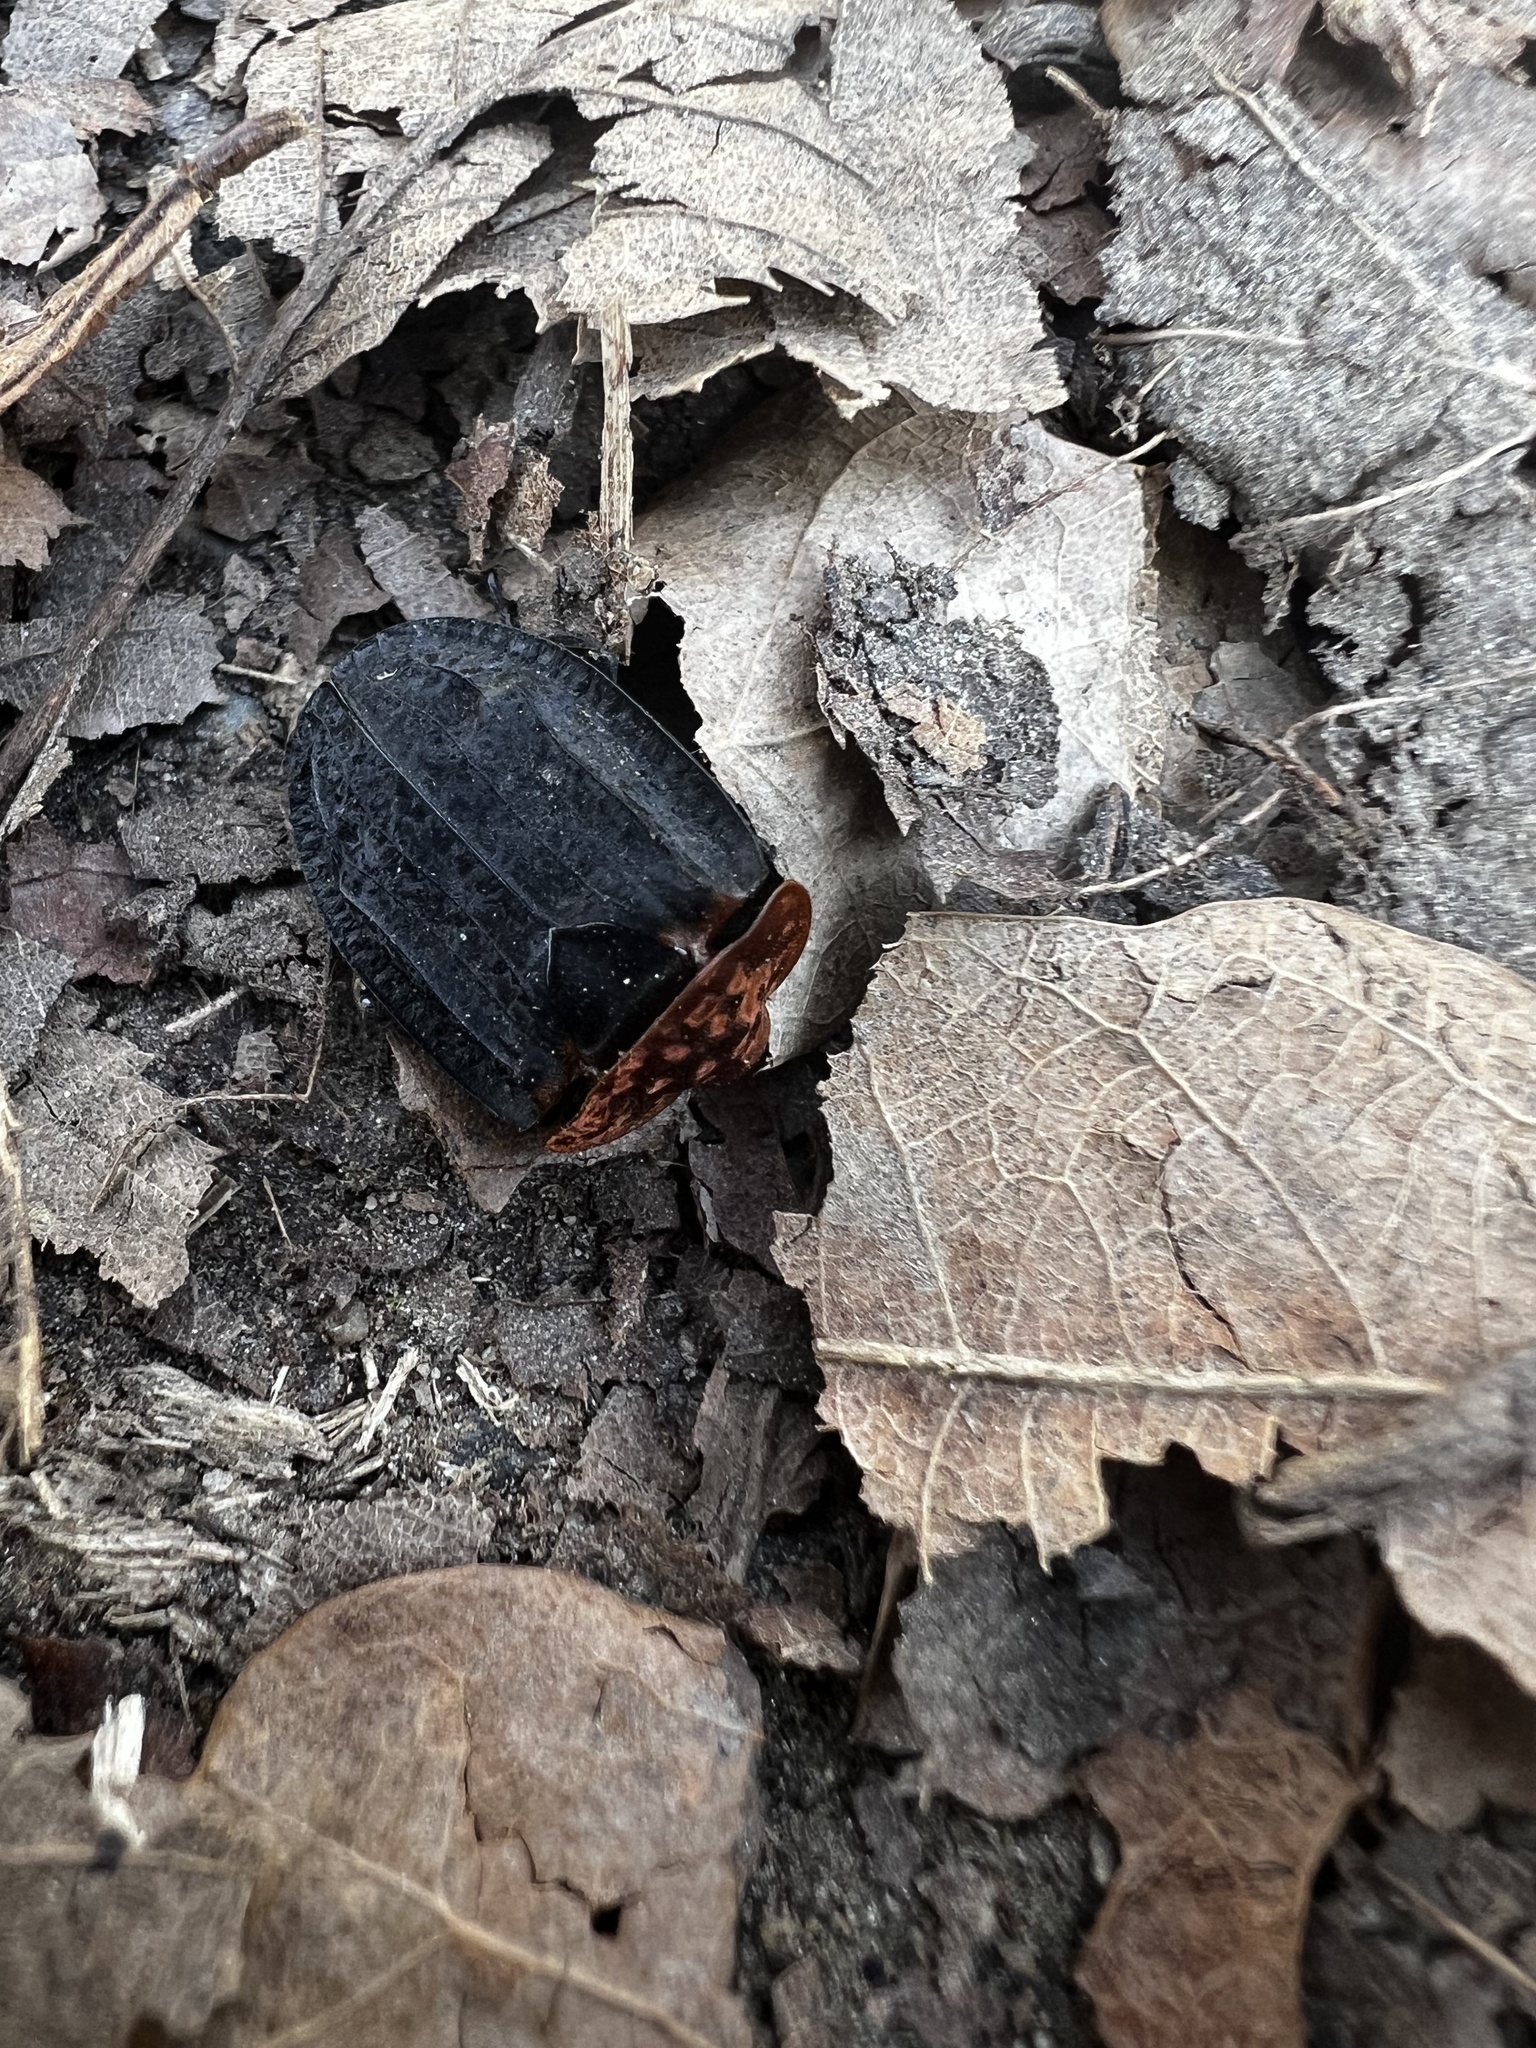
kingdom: Animalia
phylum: Arthropoda
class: Insecta
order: Coleoptera
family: Staphylinidae
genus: Oiceoptoma
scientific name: Oiceoptoma thoracicum
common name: Red-breasted carrion beetle
